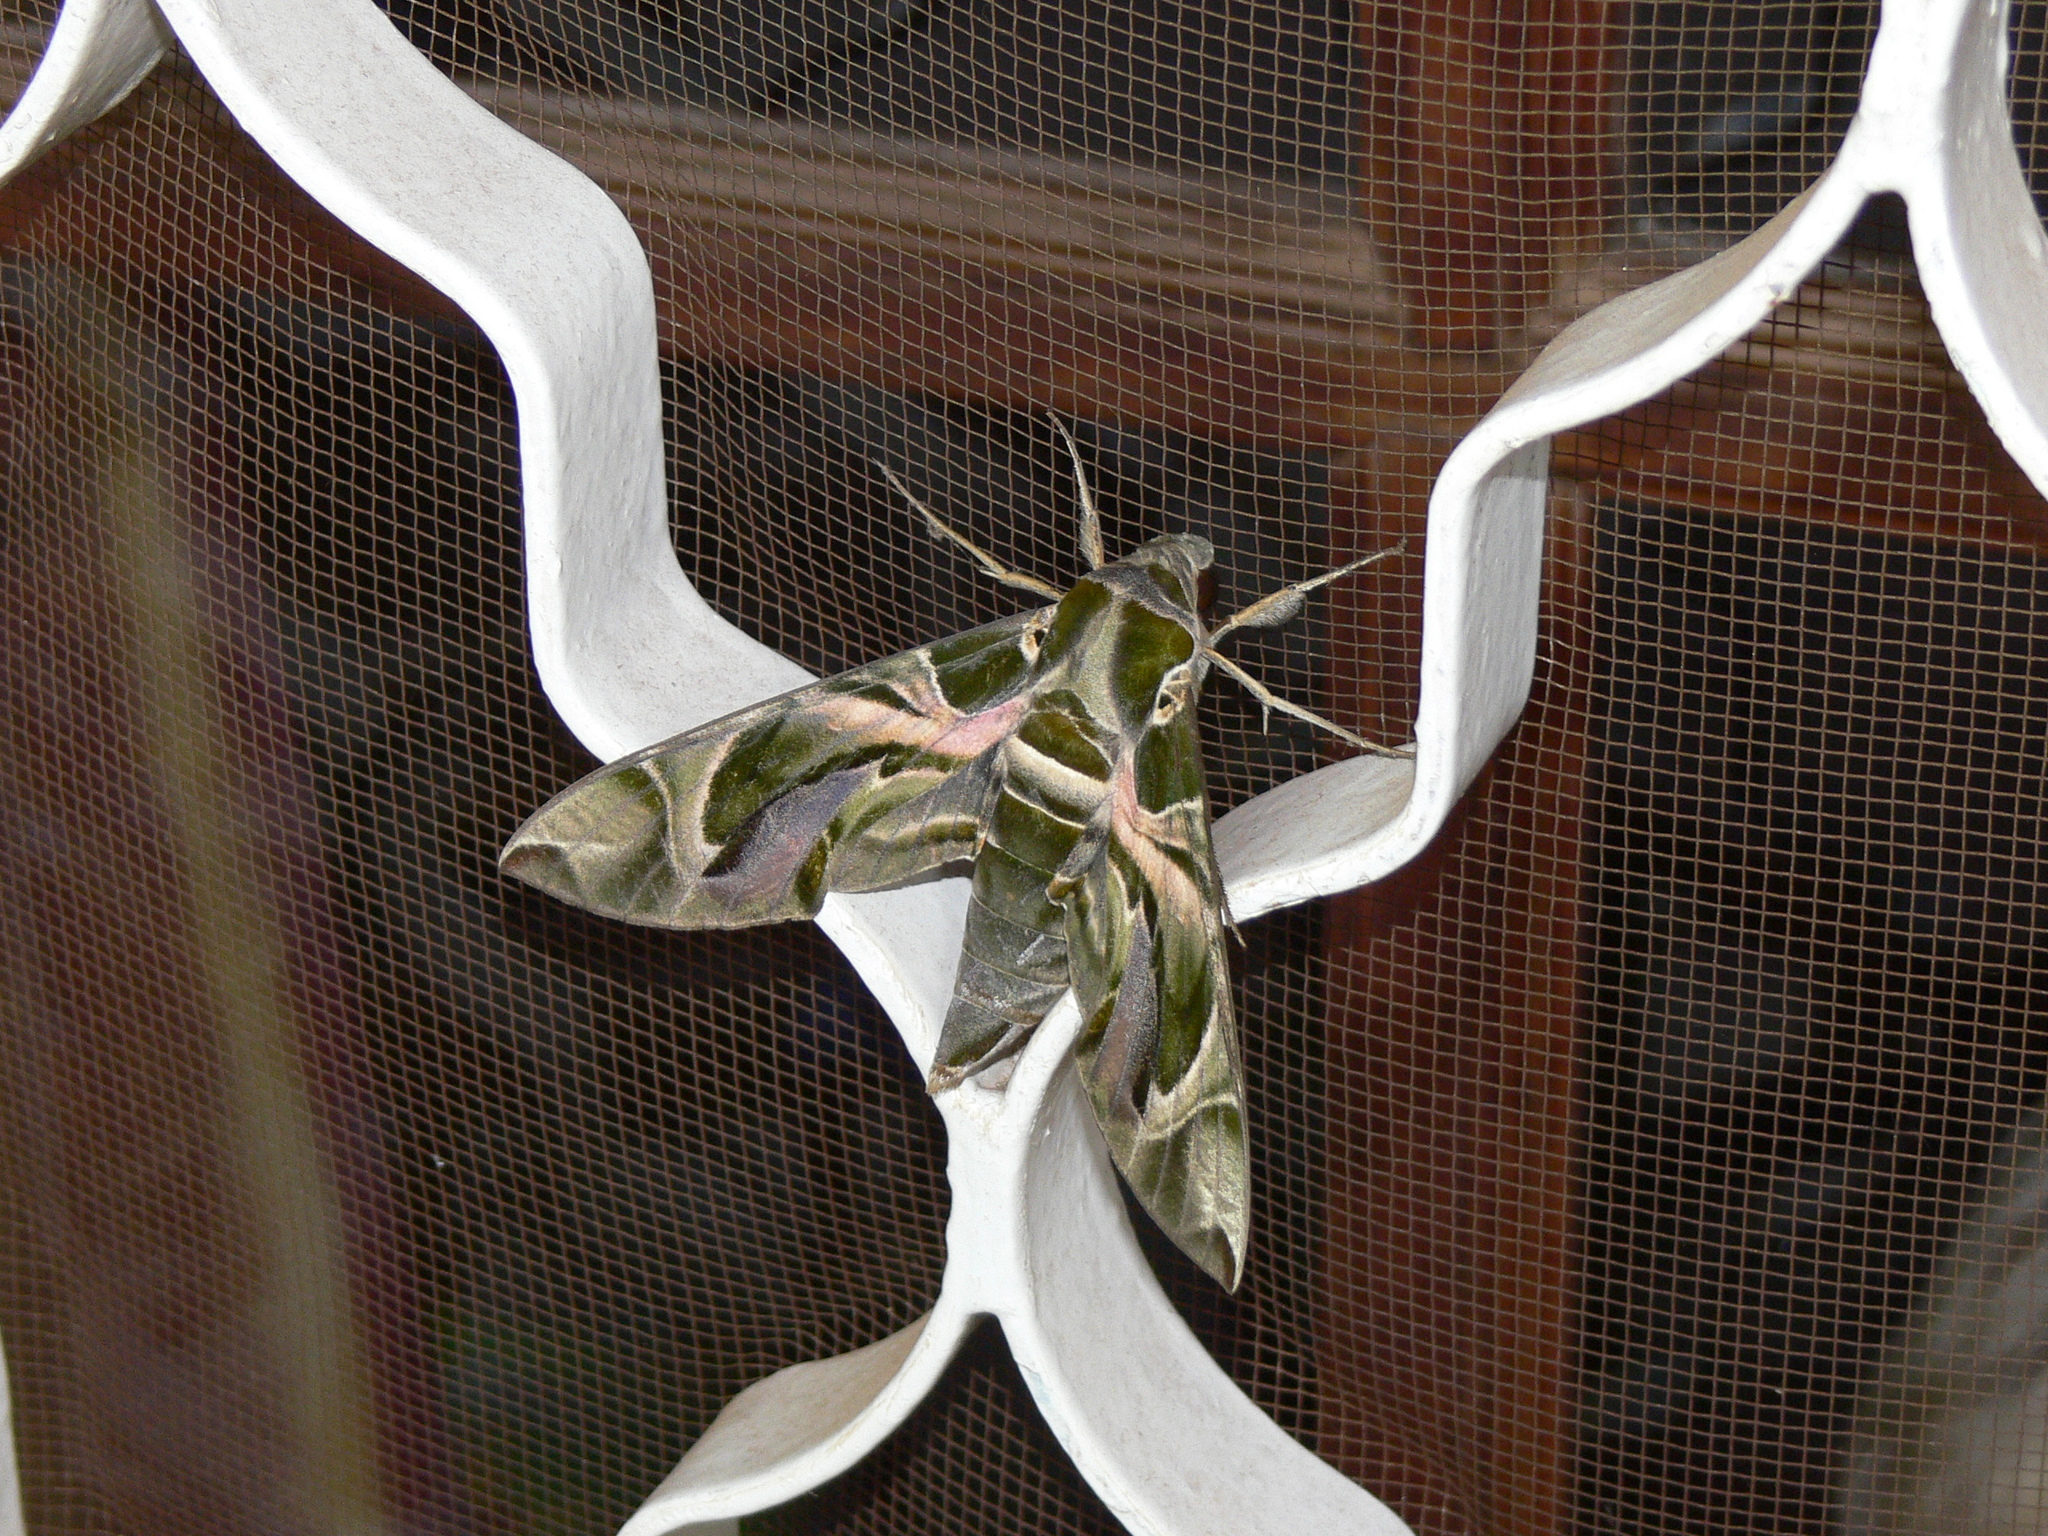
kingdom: Animalia
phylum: Arthropoda
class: Insecta
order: Lepidoptera
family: Sphingidae
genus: Daphnis
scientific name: Daphnis nerii
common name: Oleander hawk-moth
